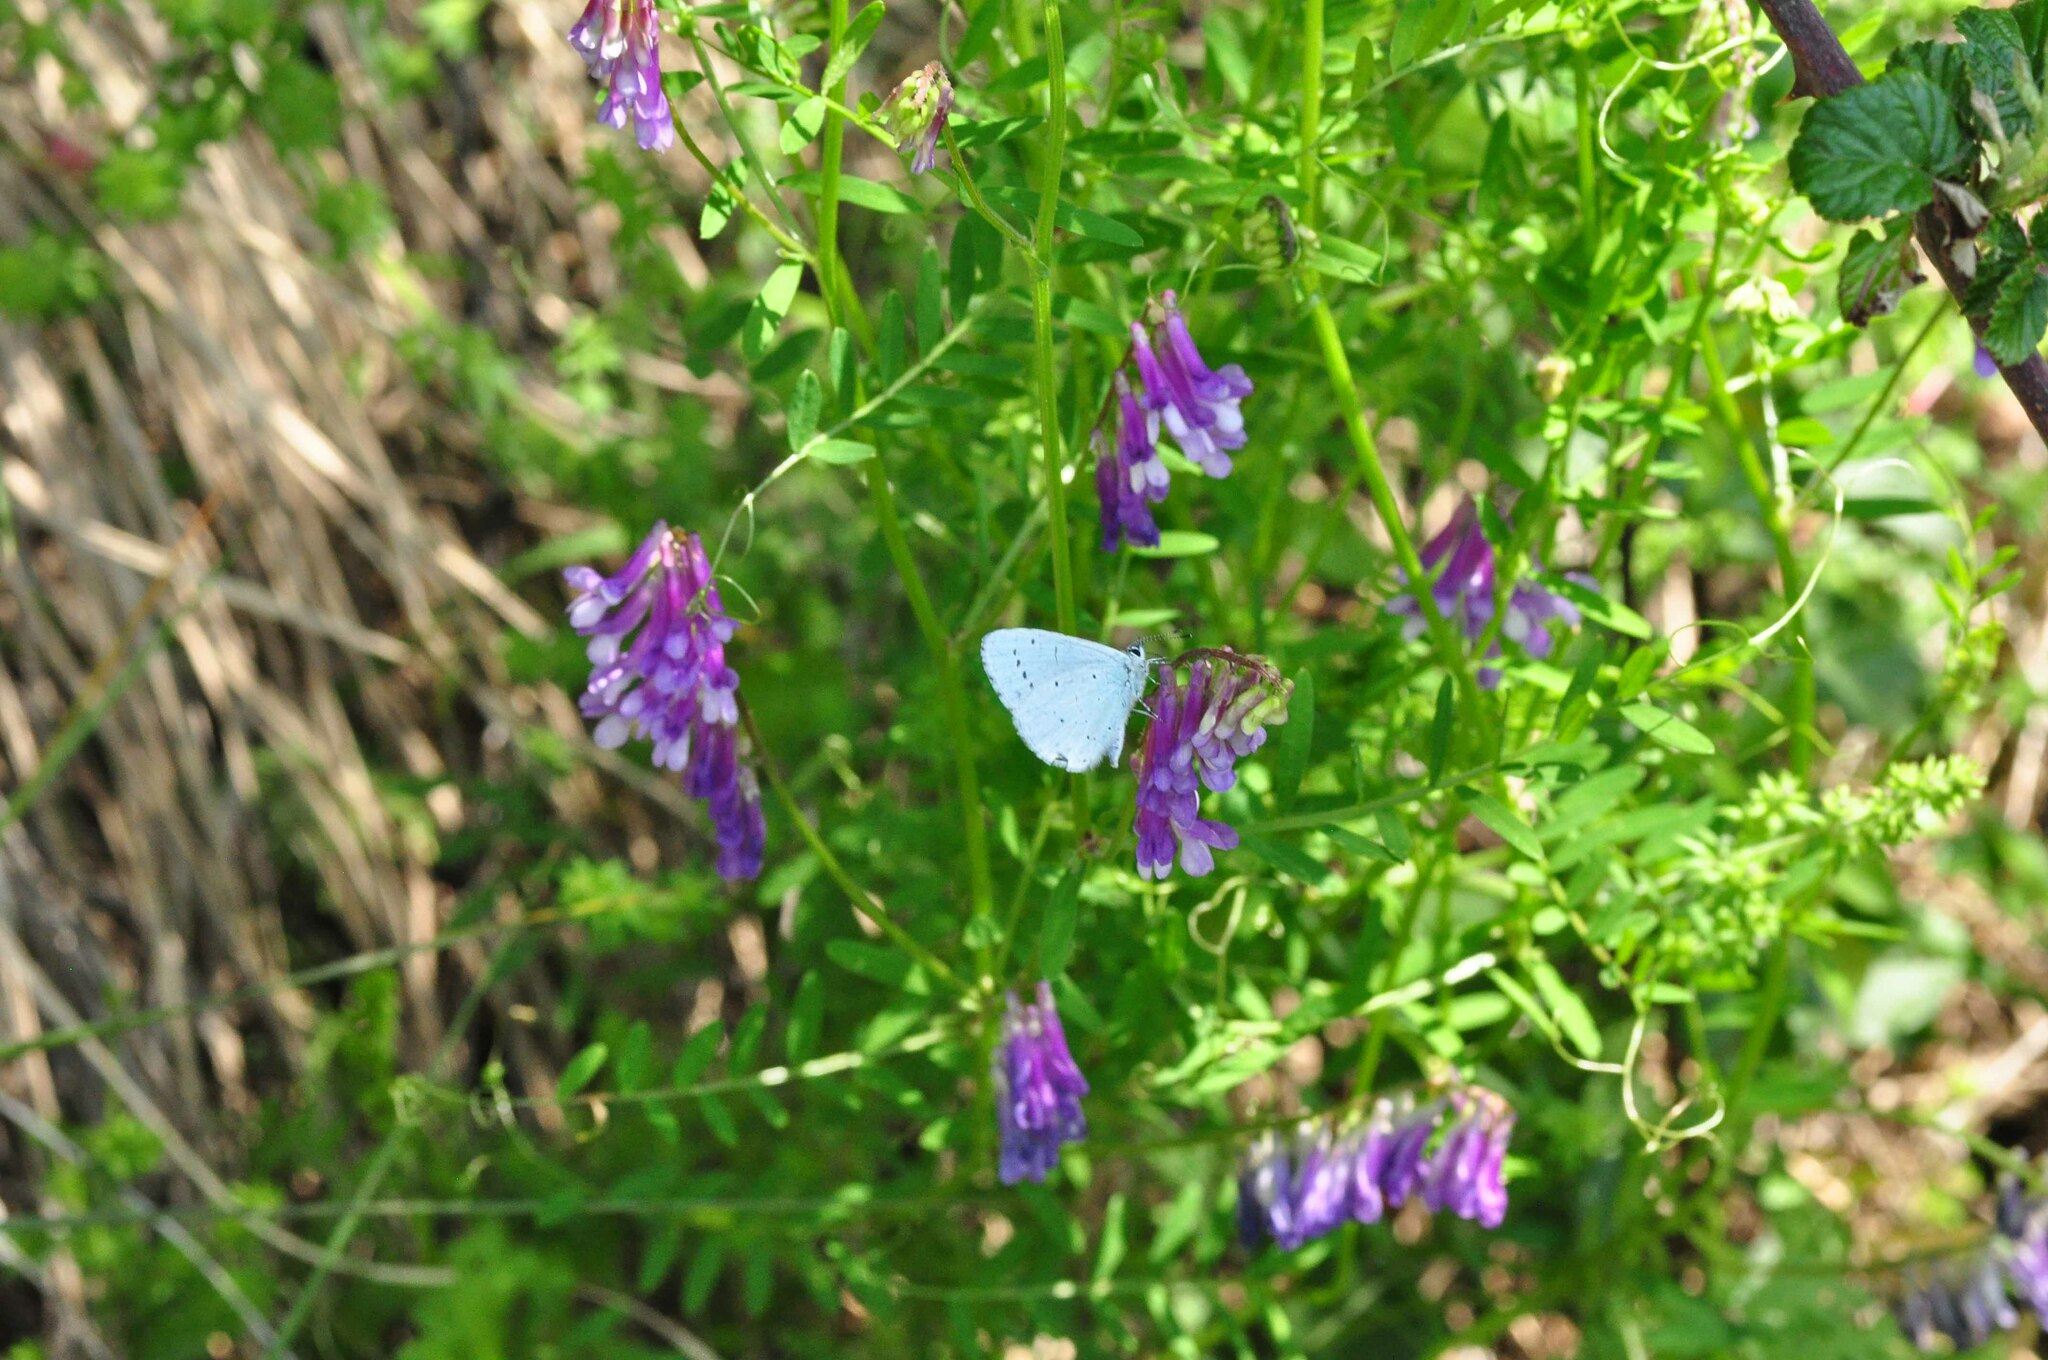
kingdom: Animalia
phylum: Arthropoda
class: Insecta
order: Lepidoptera
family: Lycaenidae
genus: Celastrina
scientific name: Celastrina argiolus
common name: Holly blue
